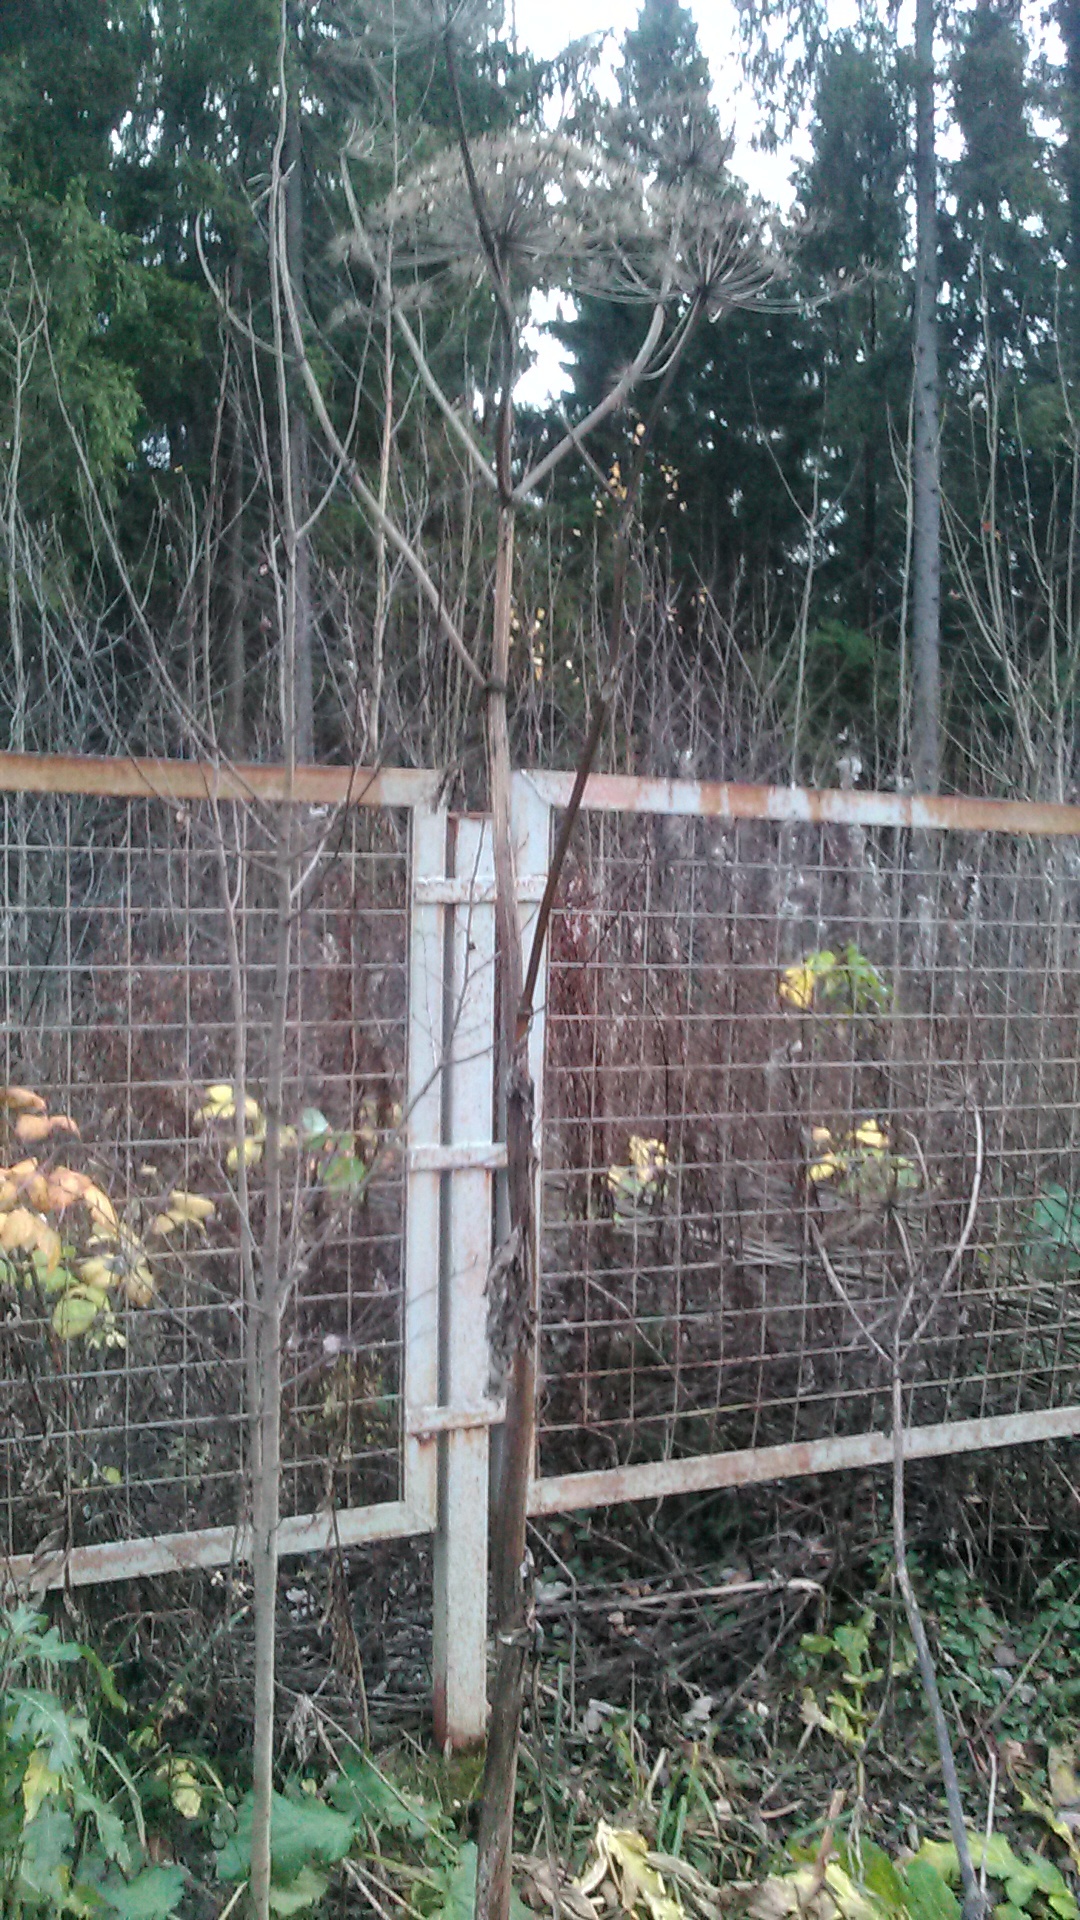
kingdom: Plantae
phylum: Tracheophyta
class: Magnoliopsida
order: Apiales
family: Apiaceae
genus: Heracleum
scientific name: Heracleum sosnowskyi
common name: Sosnowsky's hogweed
